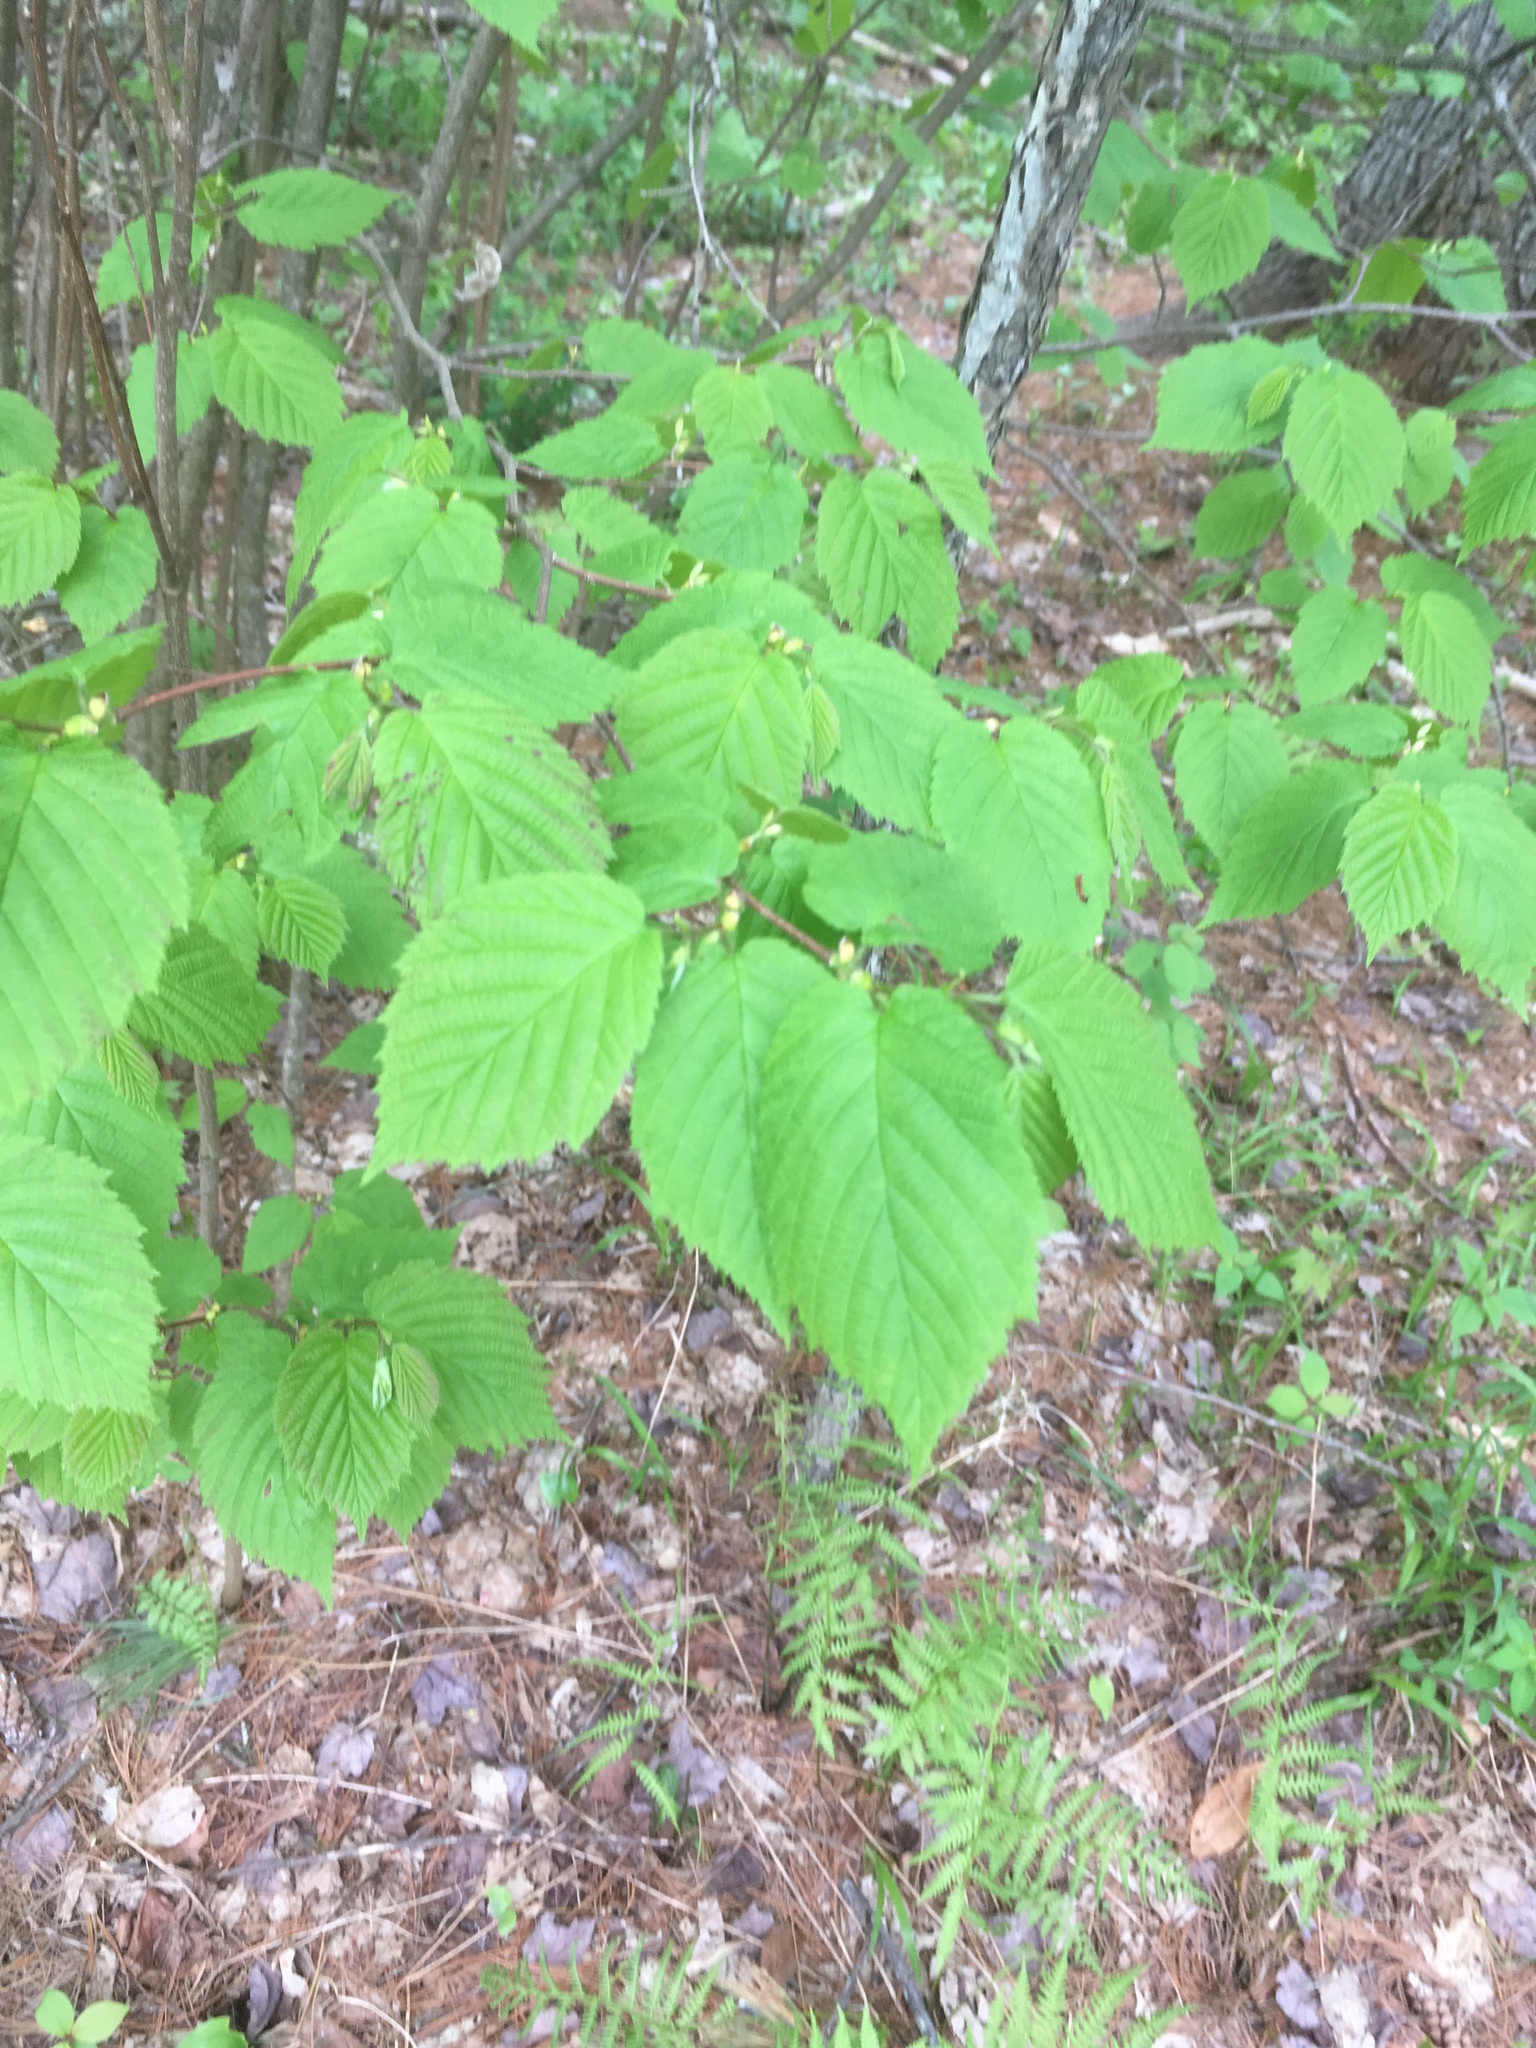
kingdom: Plantae
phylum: Tracheophyta
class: Magnoliopsida
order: Fagales
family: Betulaceae
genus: Corylus
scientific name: Corylus cornuta
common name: Beaked hazel
